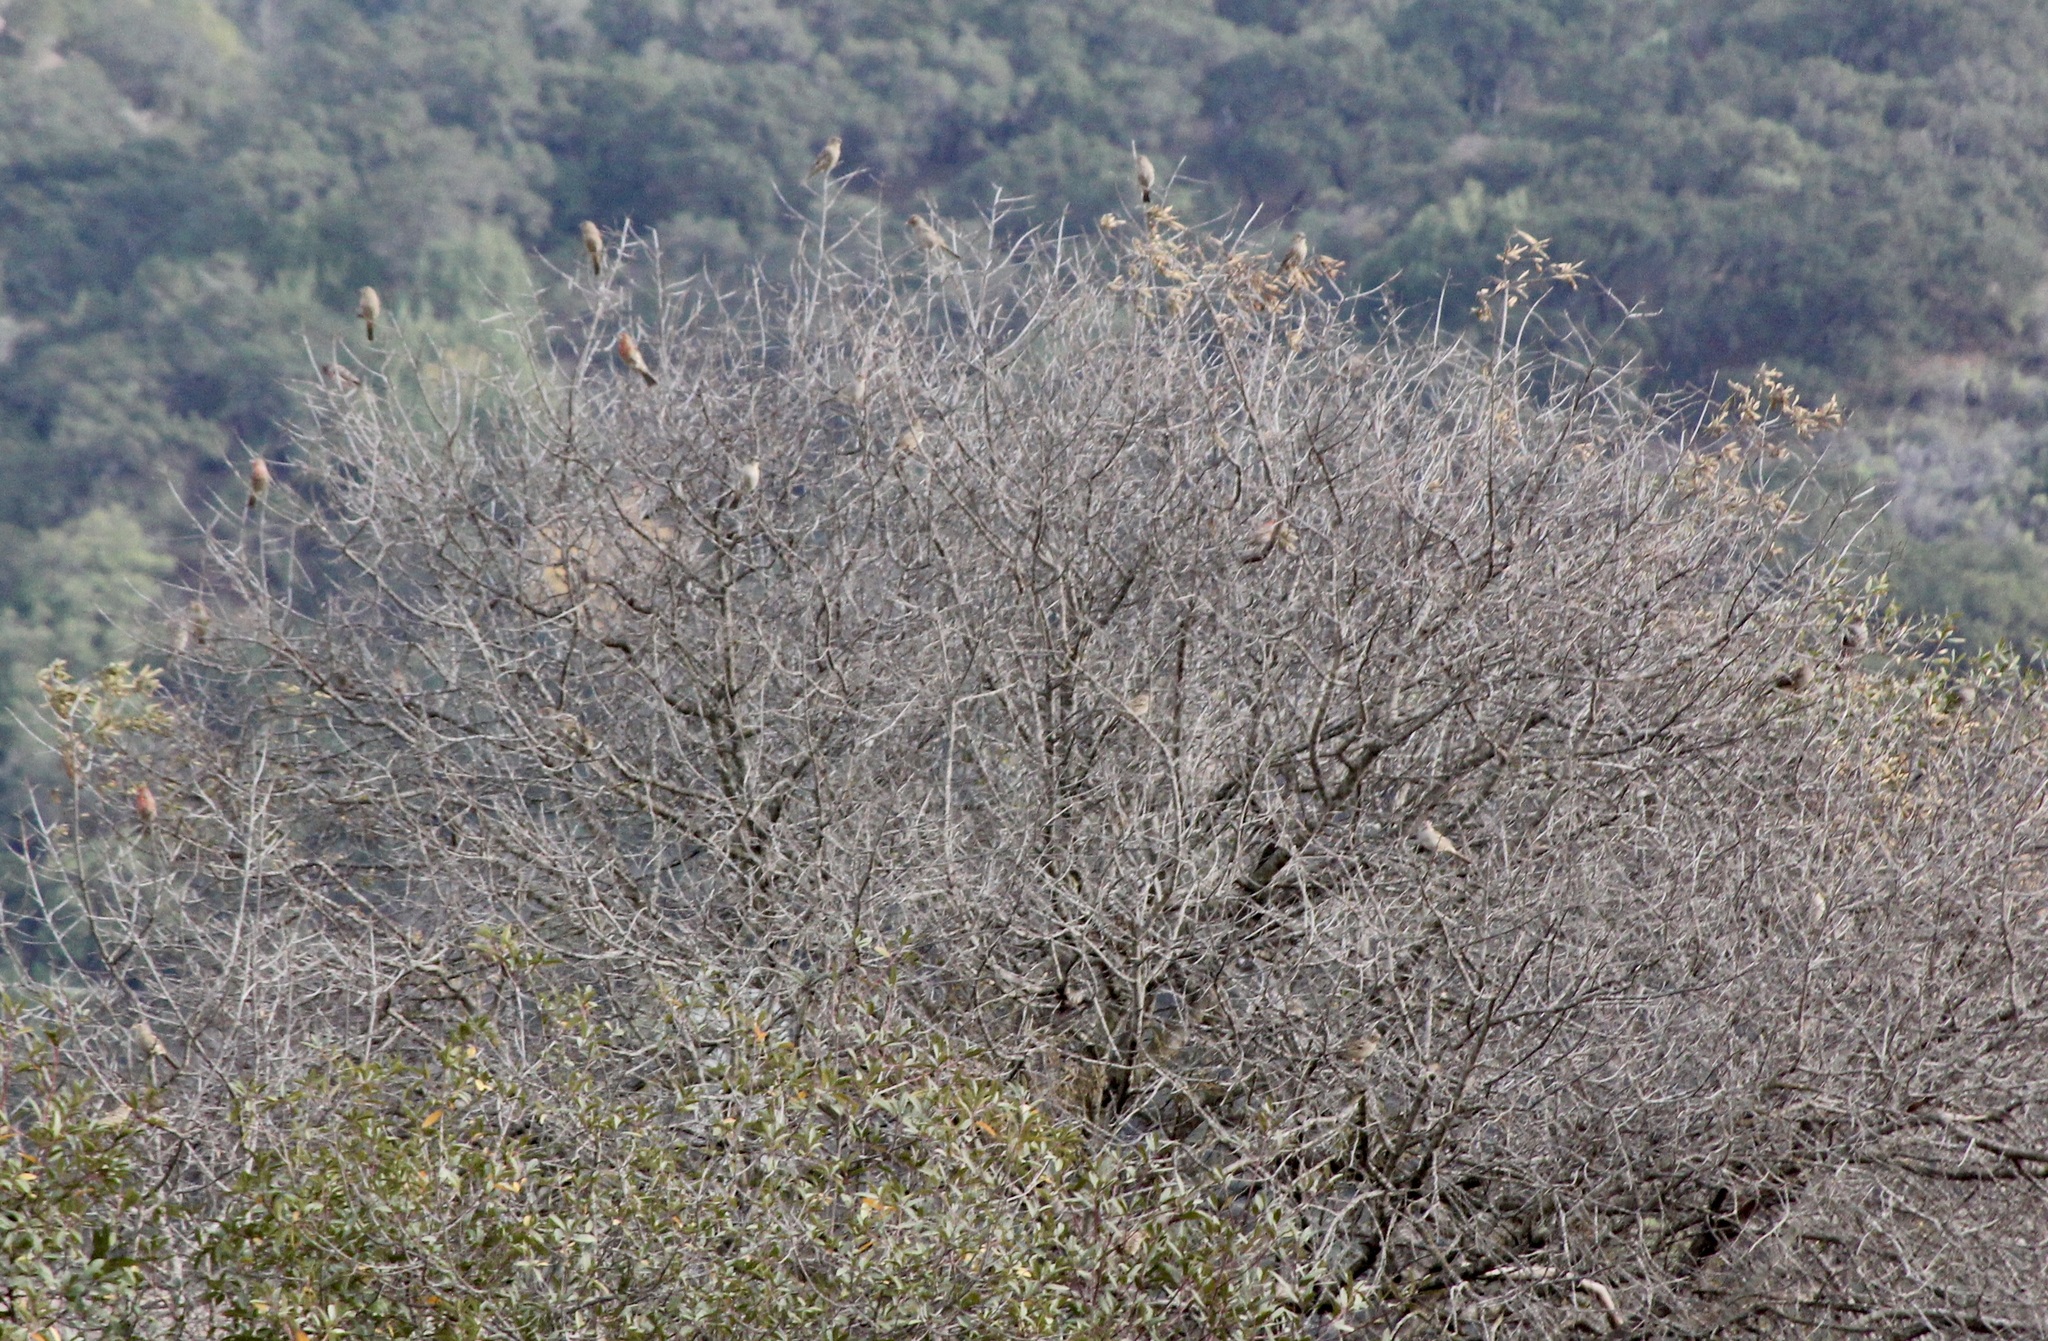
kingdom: Animalia
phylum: Chordata
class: Aves
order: Passeriformes
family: Fringillidae
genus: Haemorhous
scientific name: Haemorhous mexicanus
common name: House finch
